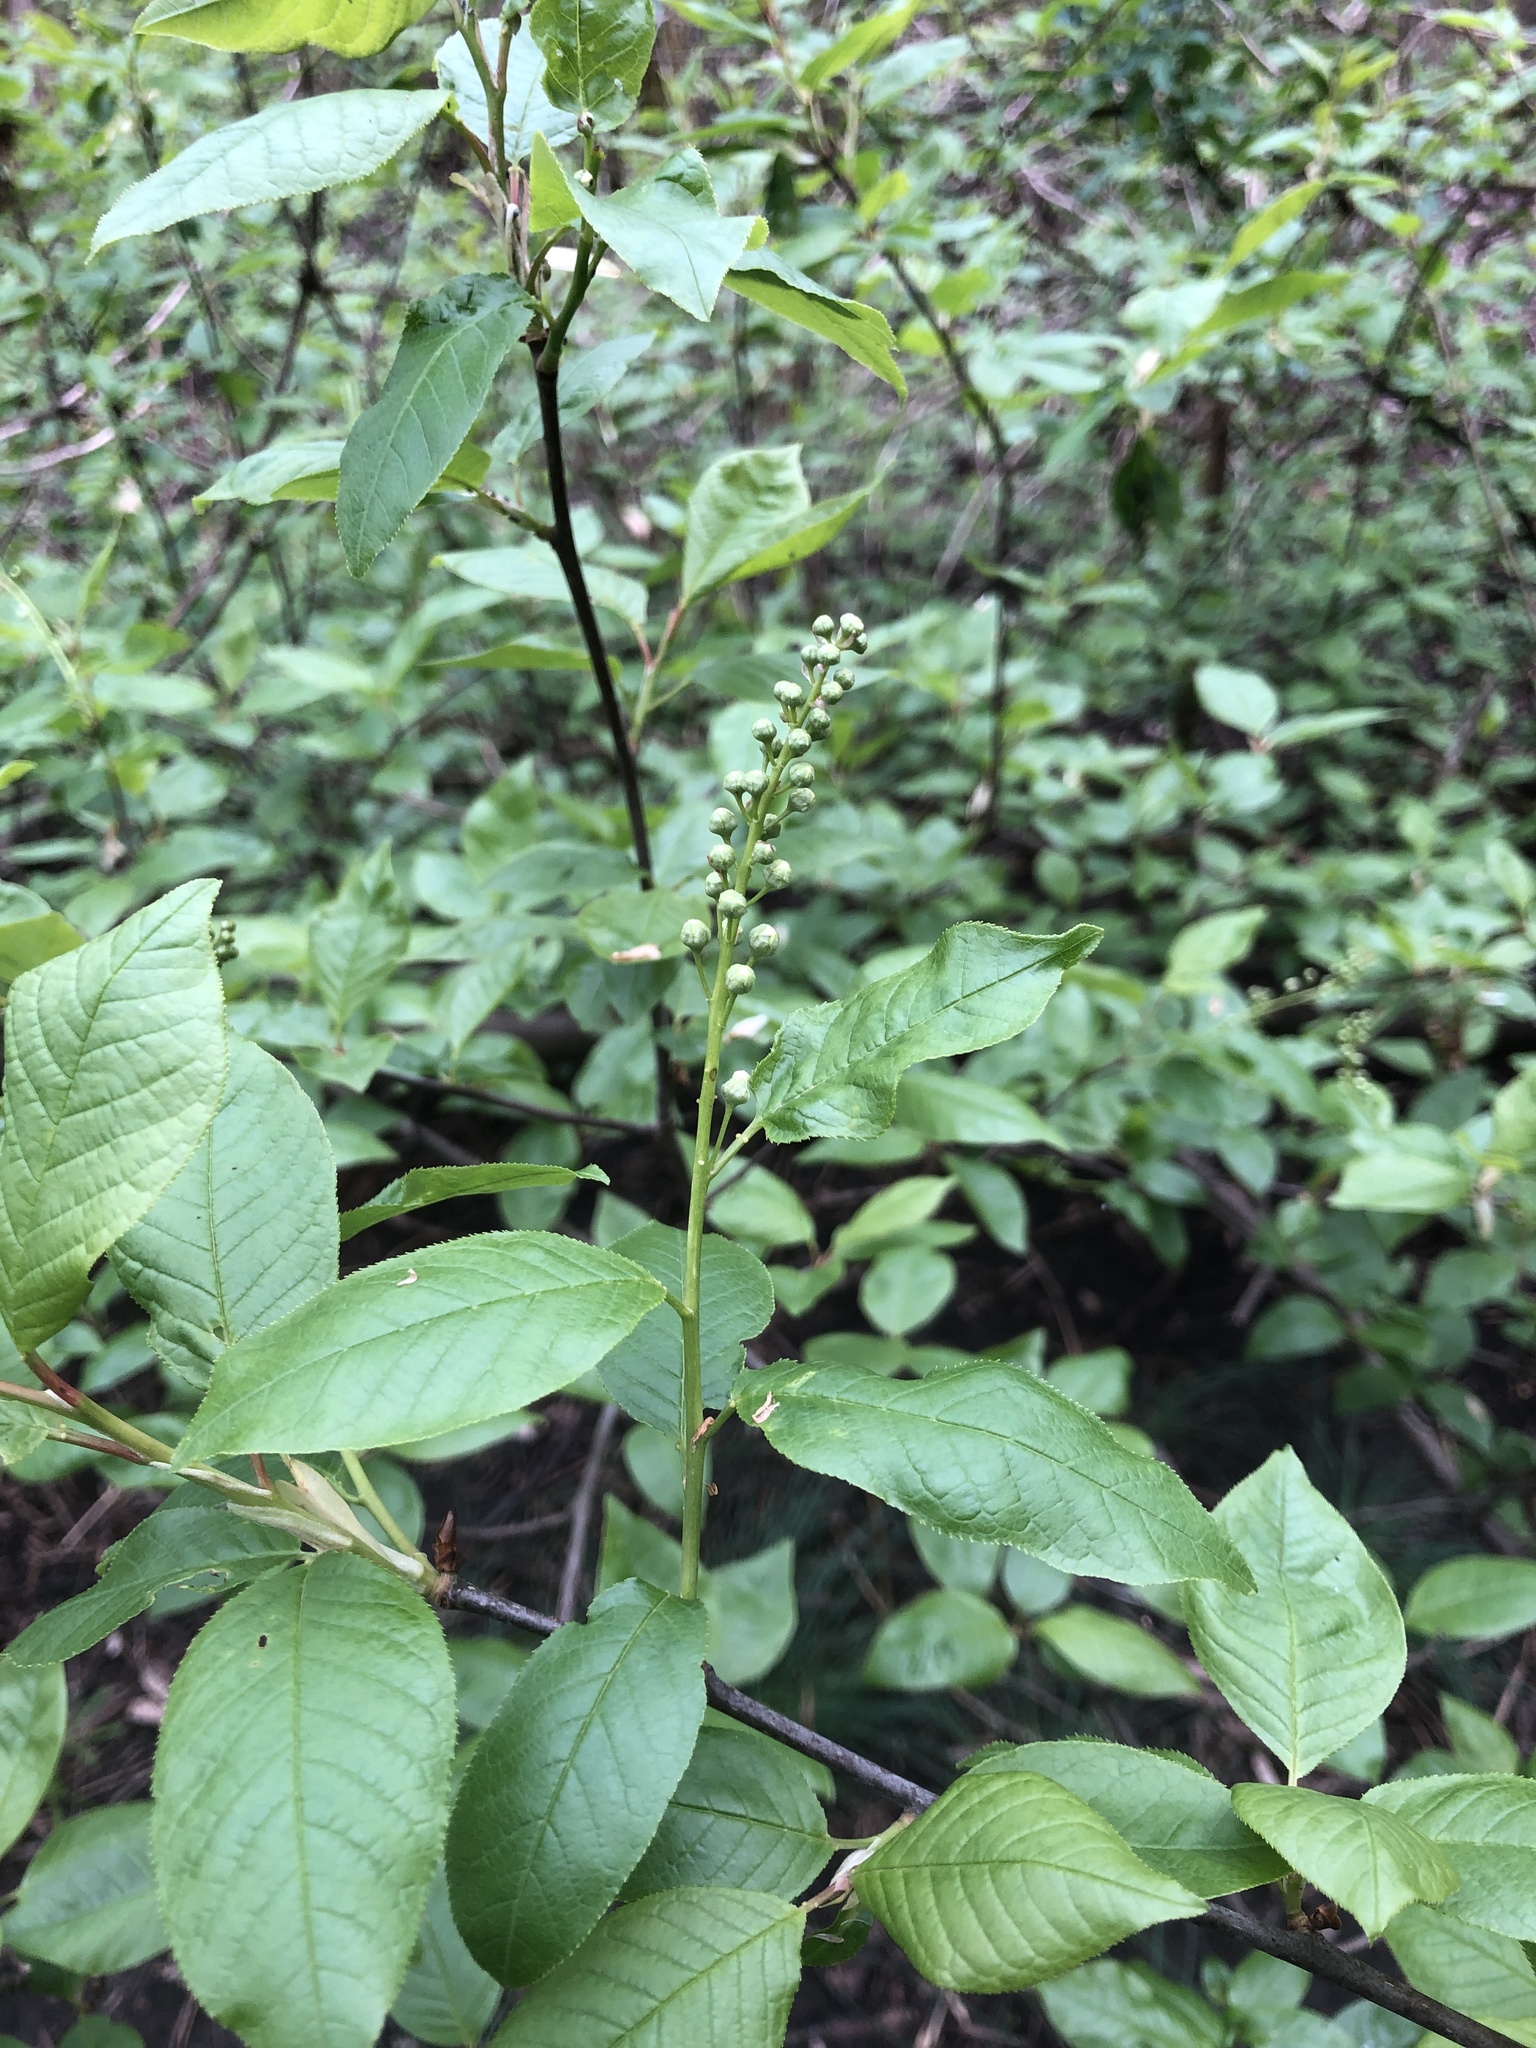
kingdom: Plantae
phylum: Tracheophyta
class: Magnoliopsida
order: Rosales
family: Rosaceae
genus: Prunus
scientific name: Prunus padus
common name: Bird cherry
